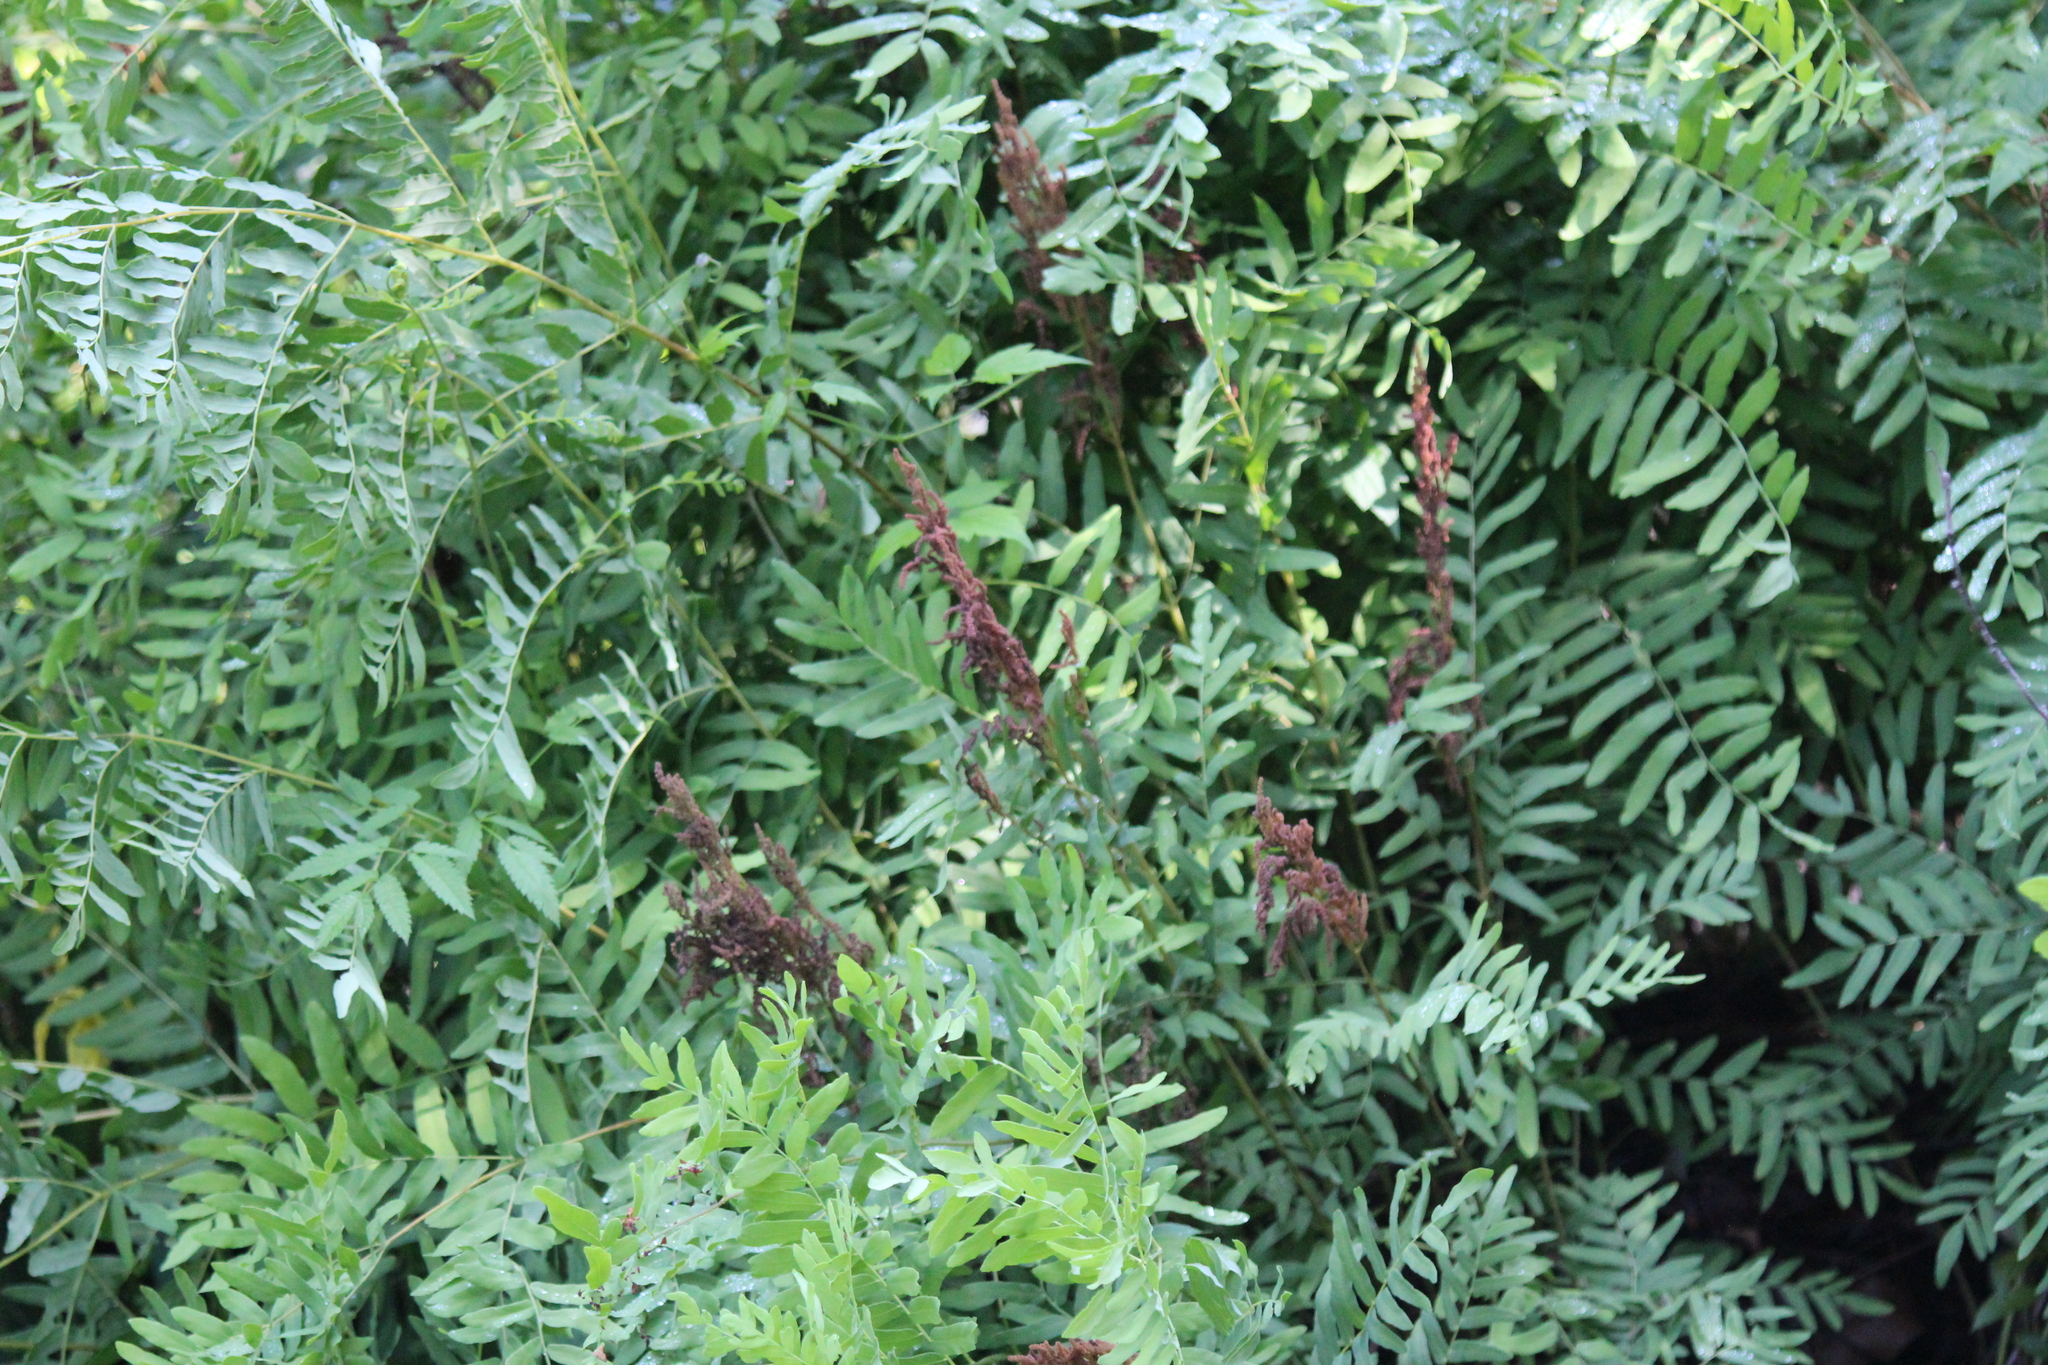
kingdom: Plantae
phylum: Tracheophyta
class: Polypodiopsida
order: Osmundales
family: Osmundaceae
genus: Osmunda
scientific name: Osmunda spectabilis
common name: American royal fern
